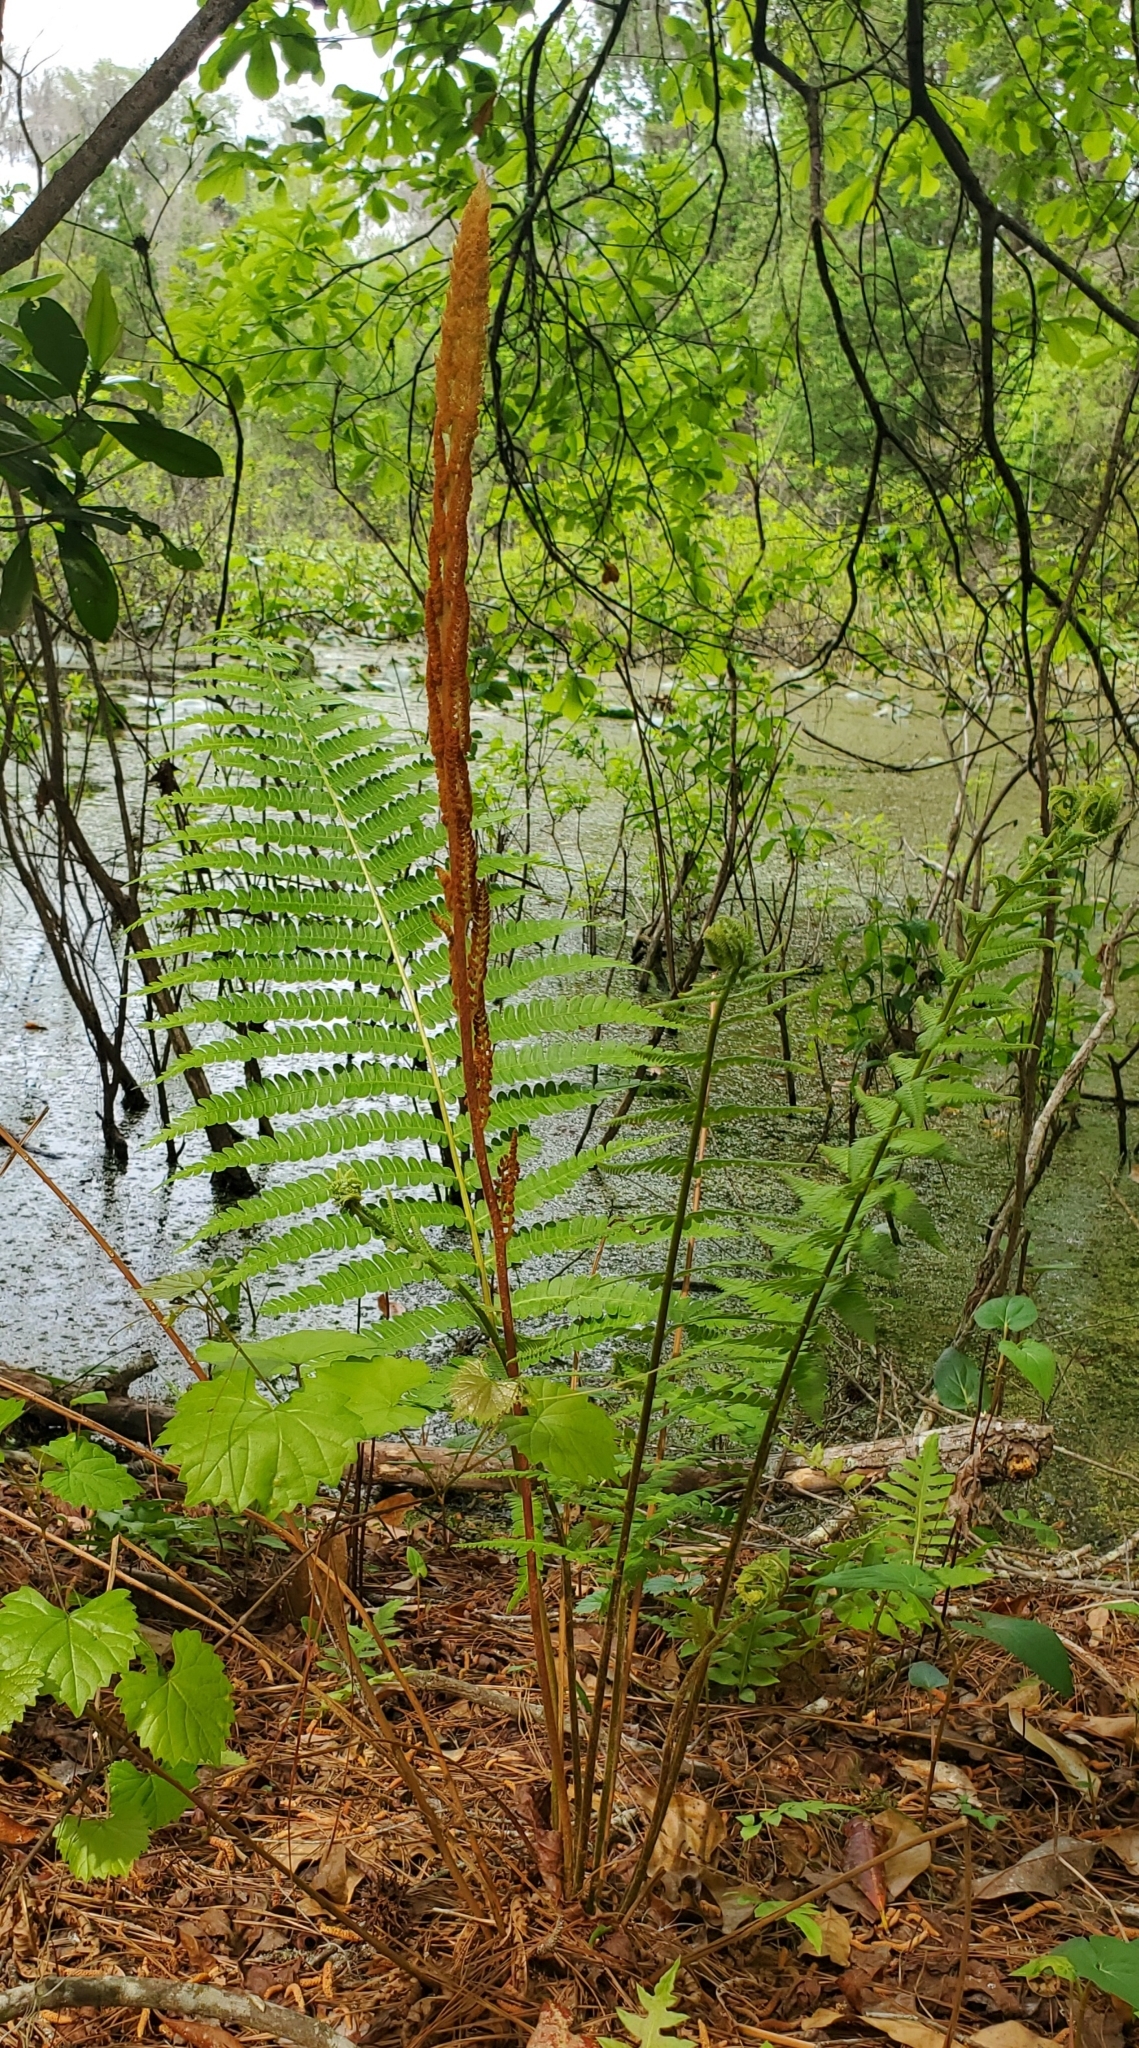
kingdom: Plantae
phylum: Tracheophyta
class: Polypodiopsida
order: Osmundales
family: Osmundaceae
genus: Osmundastrum
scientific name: Osmundastrum cinnamomeum
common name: Cinnamon fern
